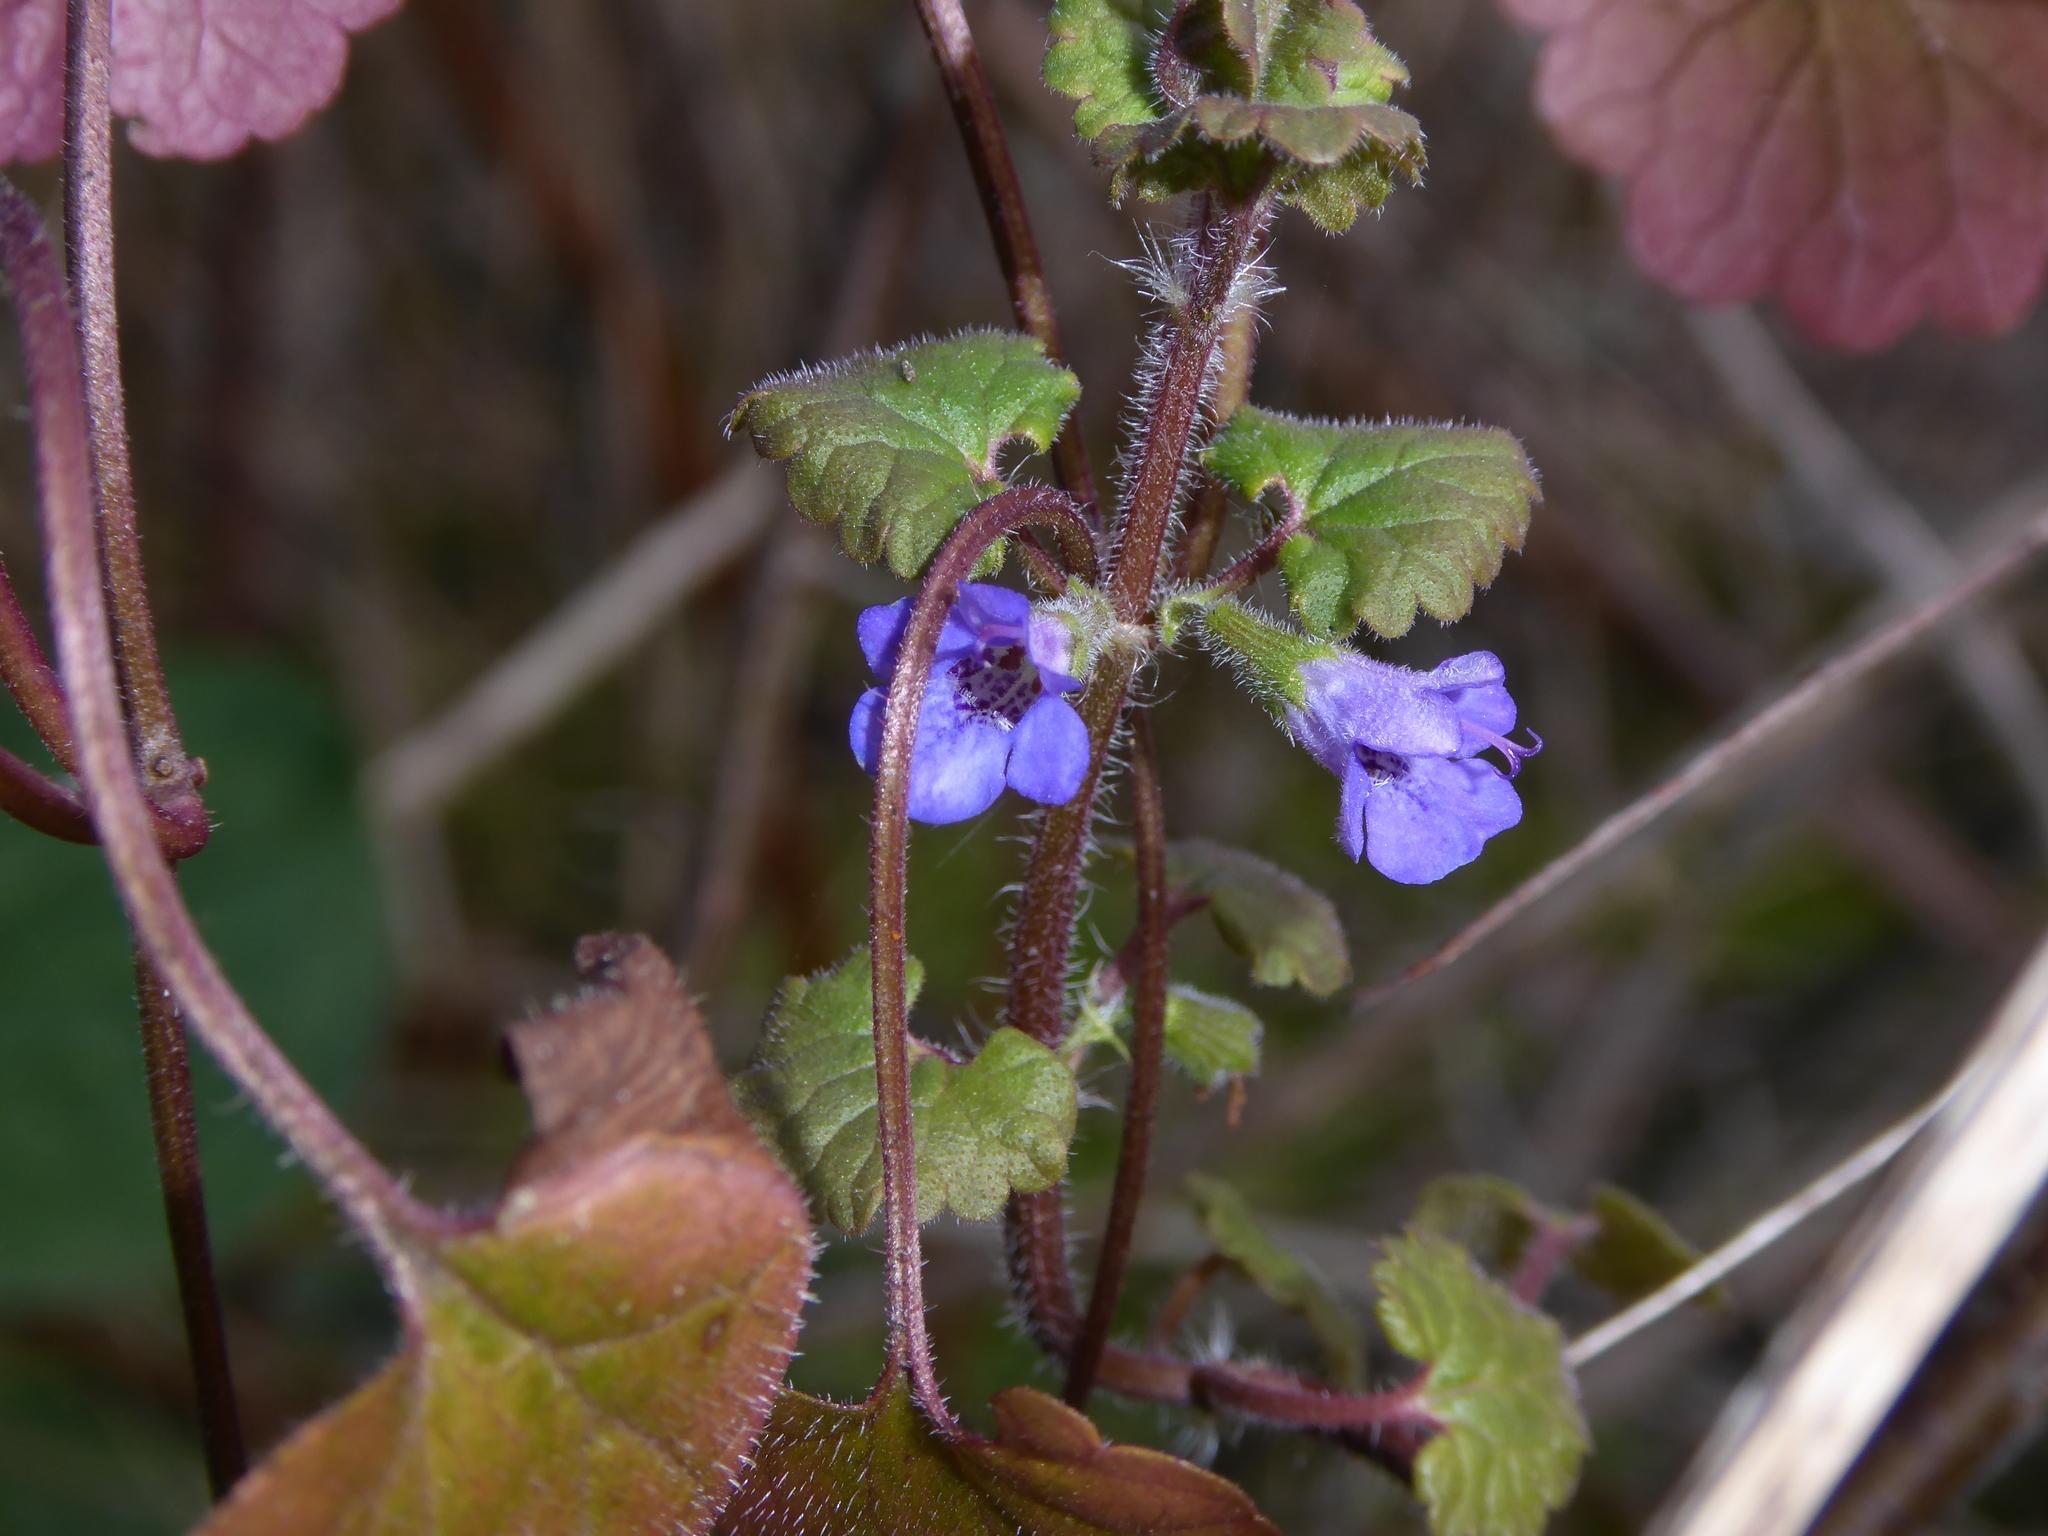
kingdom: Plantae
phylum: Tracheophyta
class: Magnoliopsida
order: Lamiales
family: Lamiaceae
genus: Glechoma
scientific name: Glechoma hederacea
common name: Ground ivy
